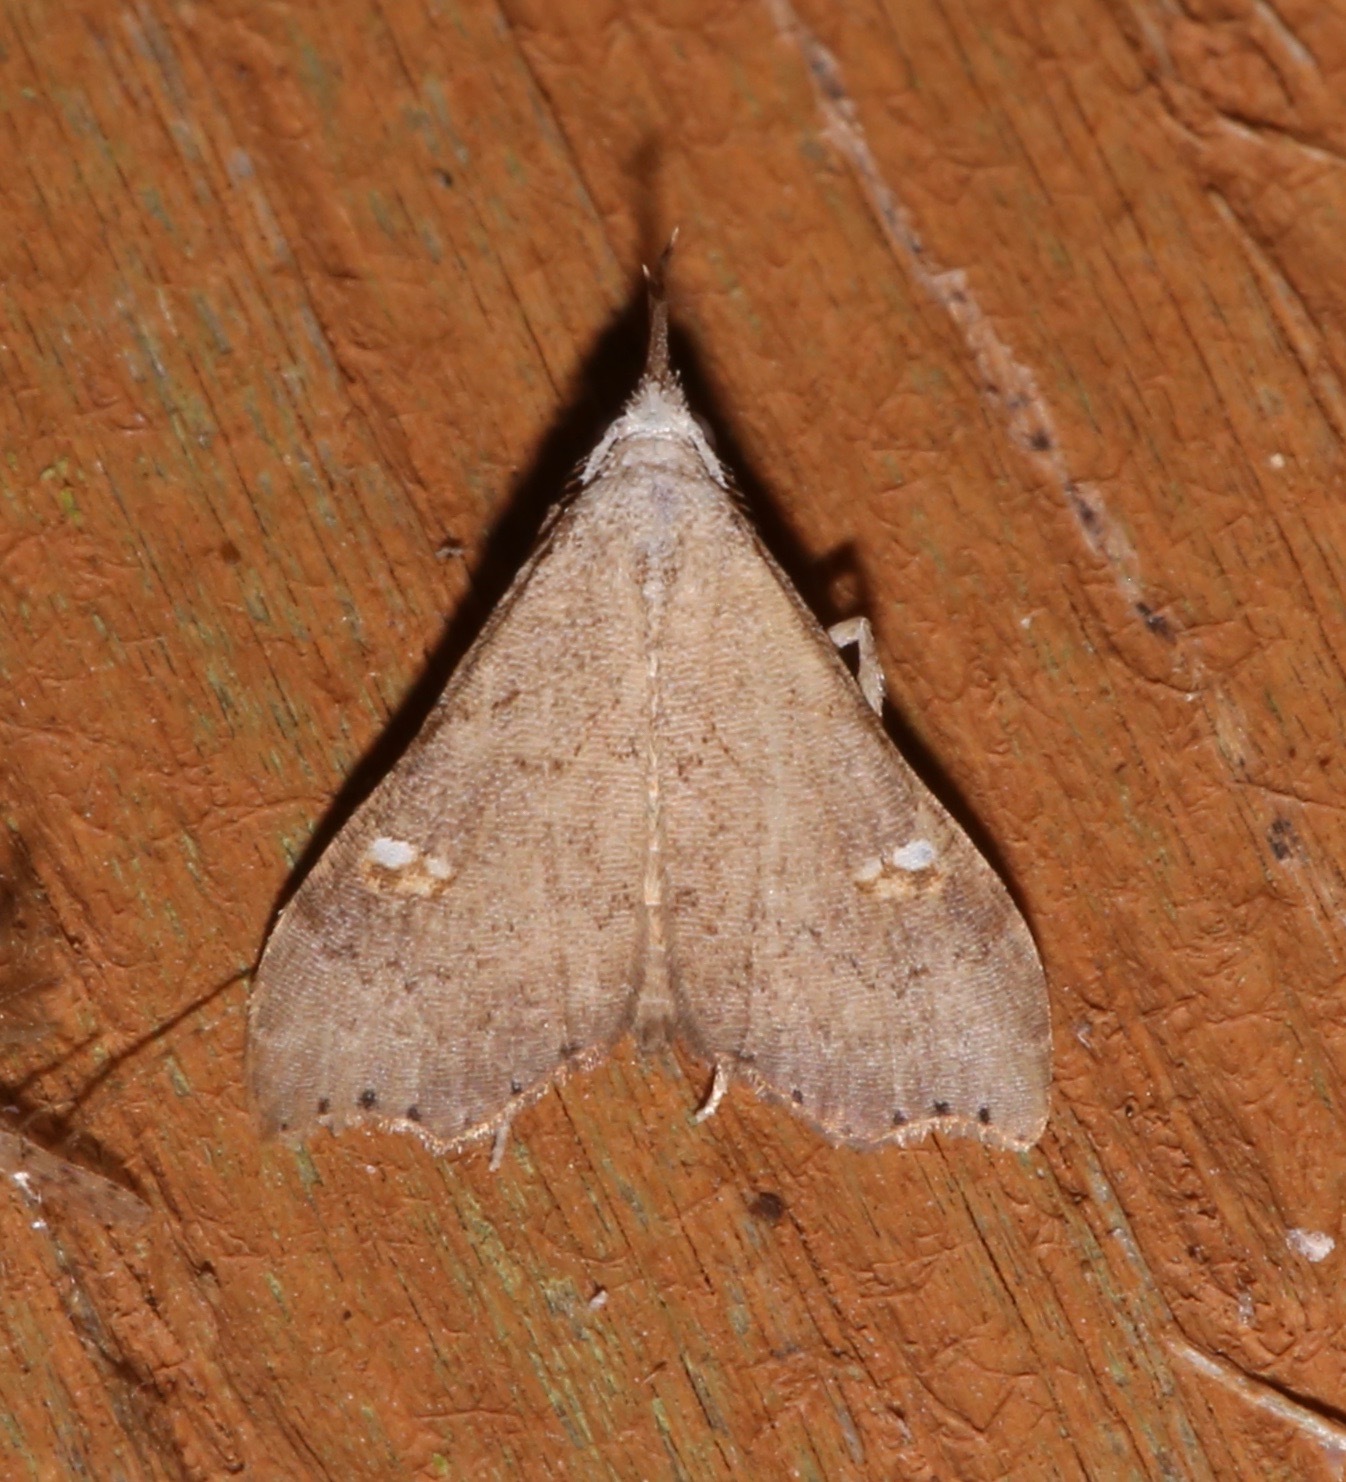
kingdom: Animalia
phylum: Arthropoda
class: Insecta
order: Lepidoptera
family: Erebidae
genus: Redectis
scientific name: Redectis vitrea
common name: White-spotted redectis
